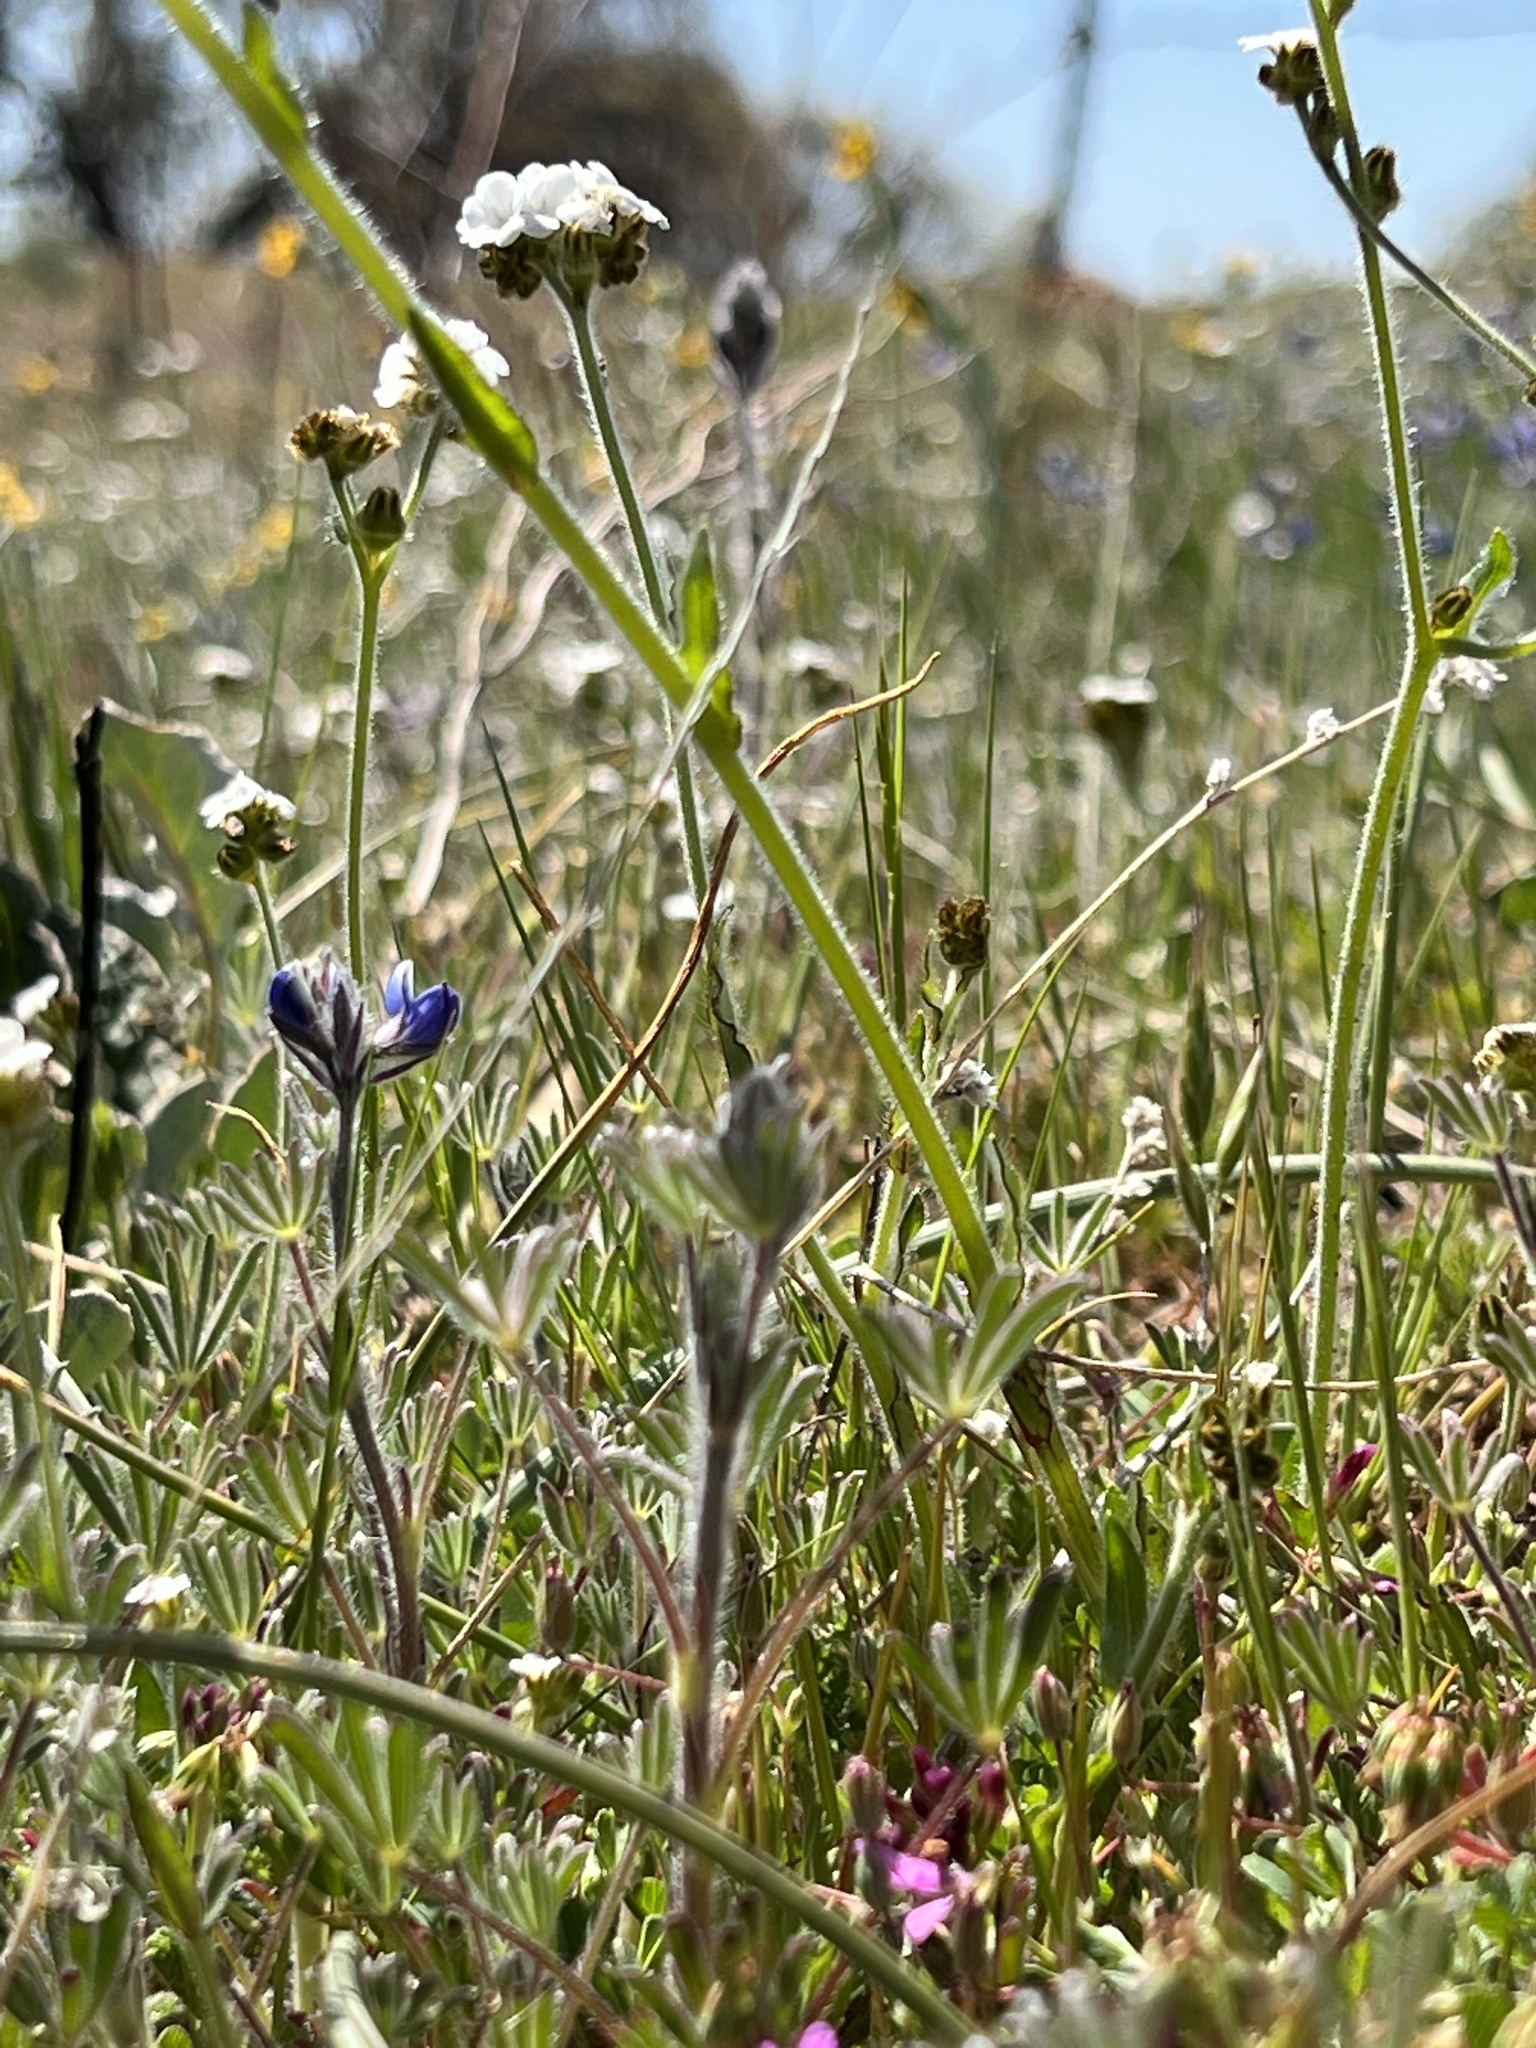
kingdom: Plantae
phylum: Tracheophyta
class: Magnoliopsida
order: Boraginales
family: Boraginaceae
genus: Plagiobothrys
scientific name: Plagiobothrys nothofulvus
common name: Popcorn-flower
